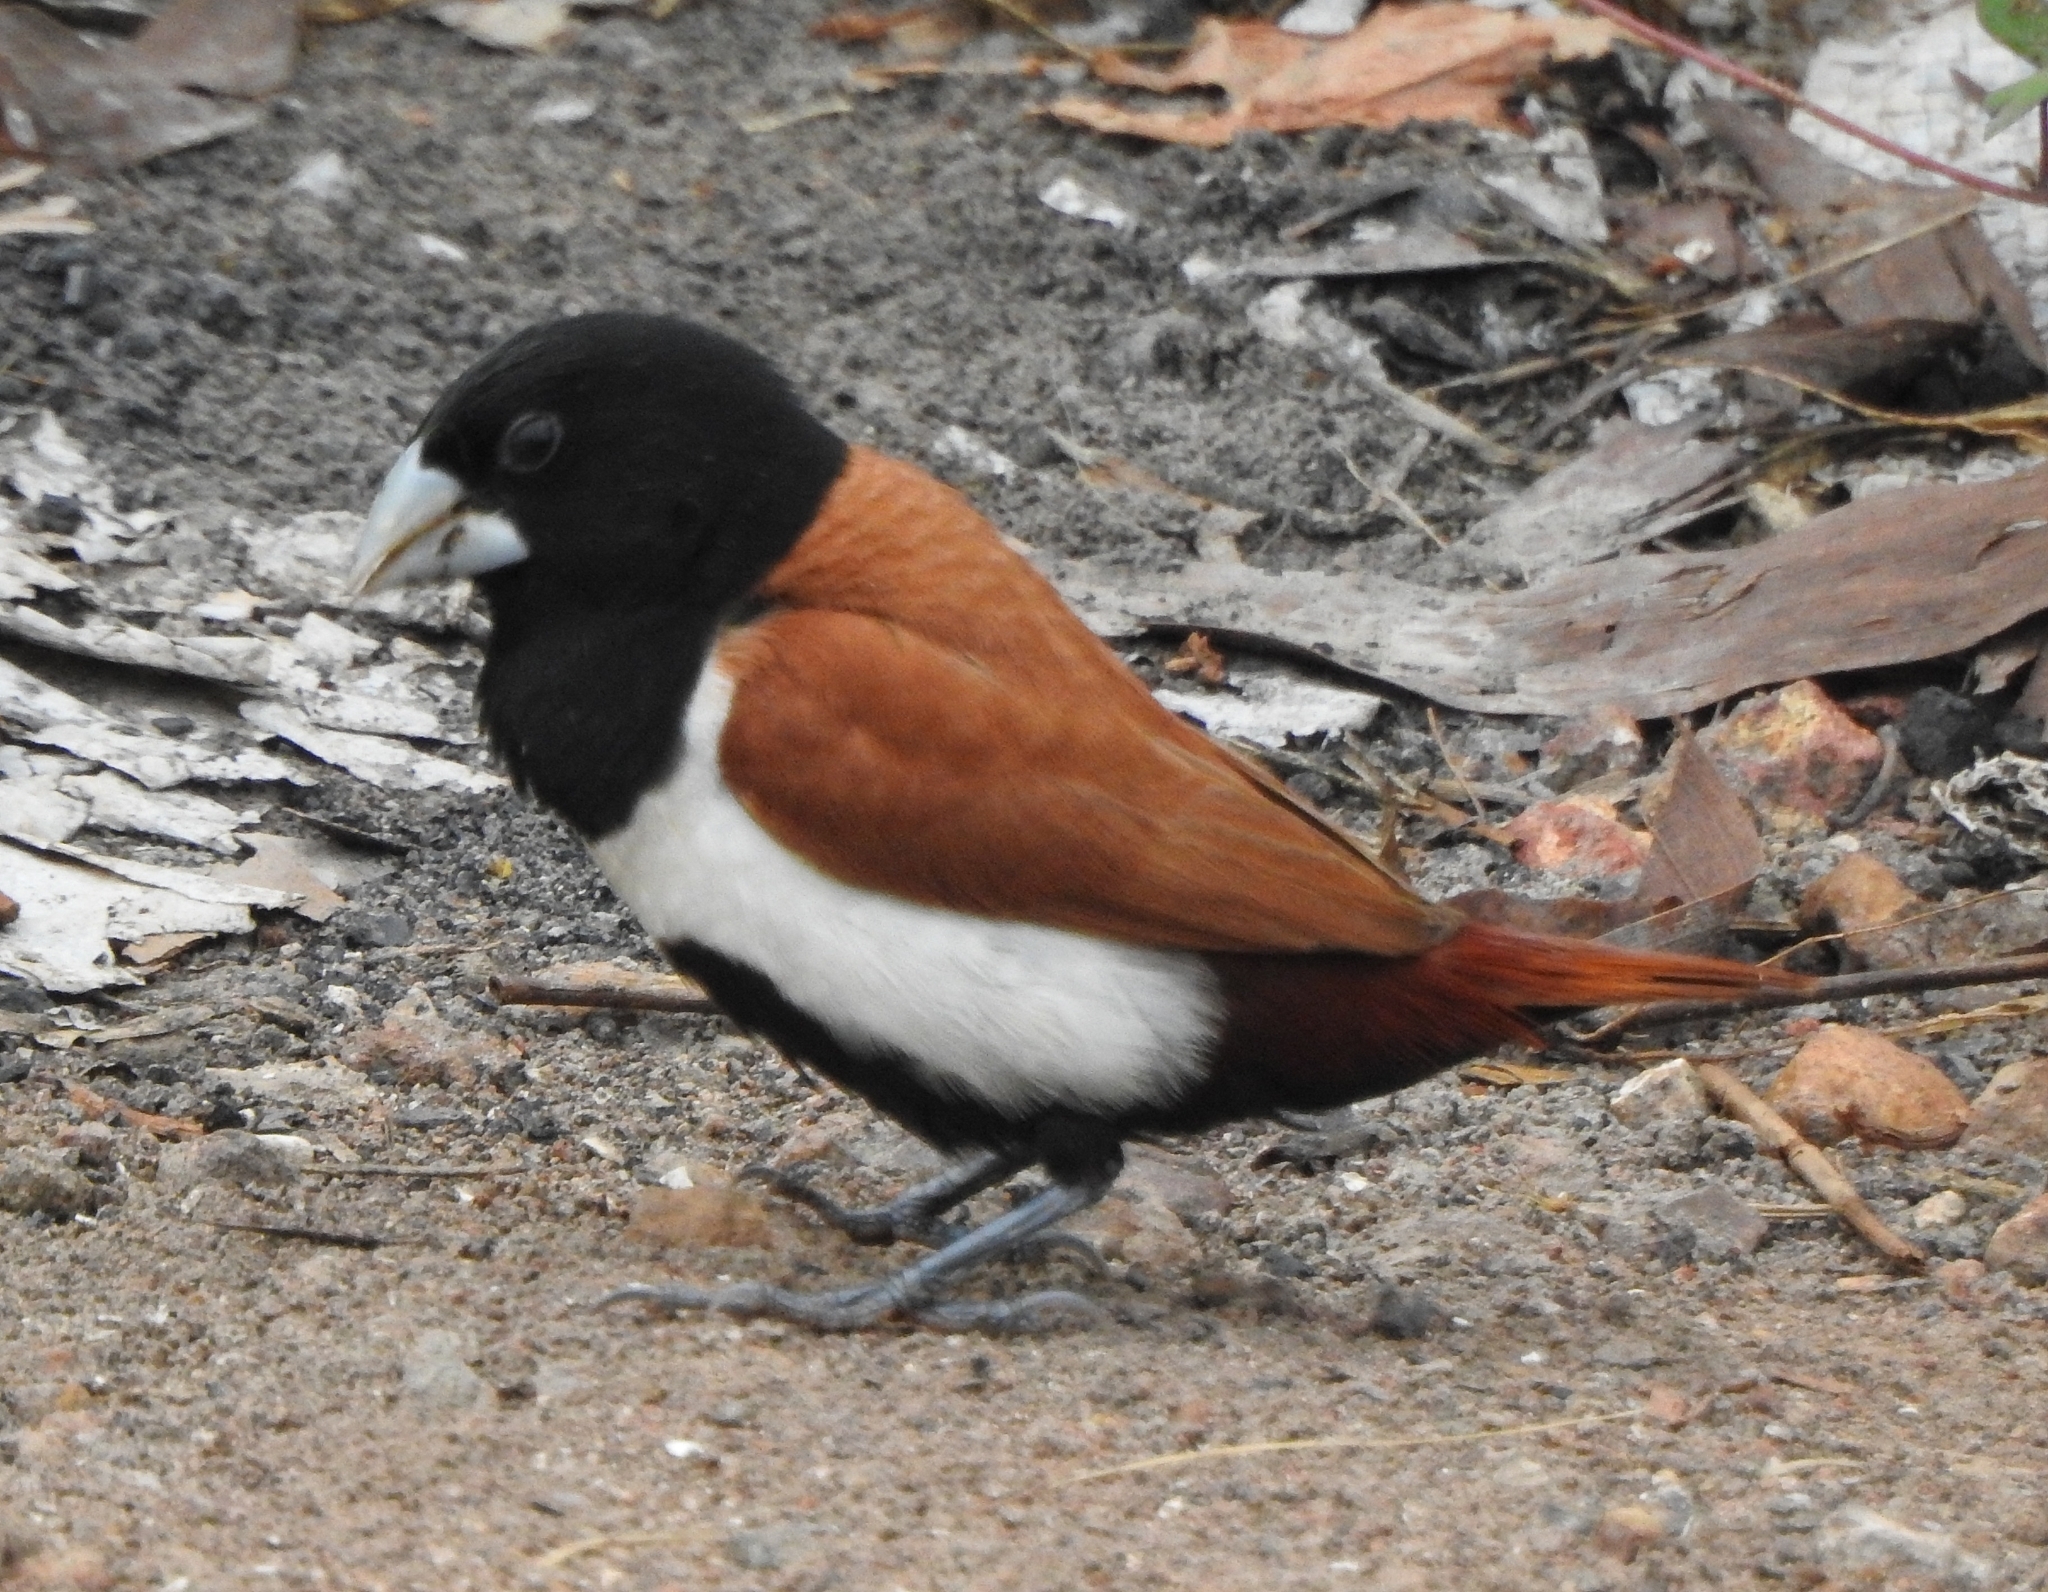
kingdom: Animalia
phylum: Chordata
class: Aves
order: Passeriformes
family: Estrildidae
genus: Lonchura
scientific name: Lonchura malacca
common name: Tricolored munia
